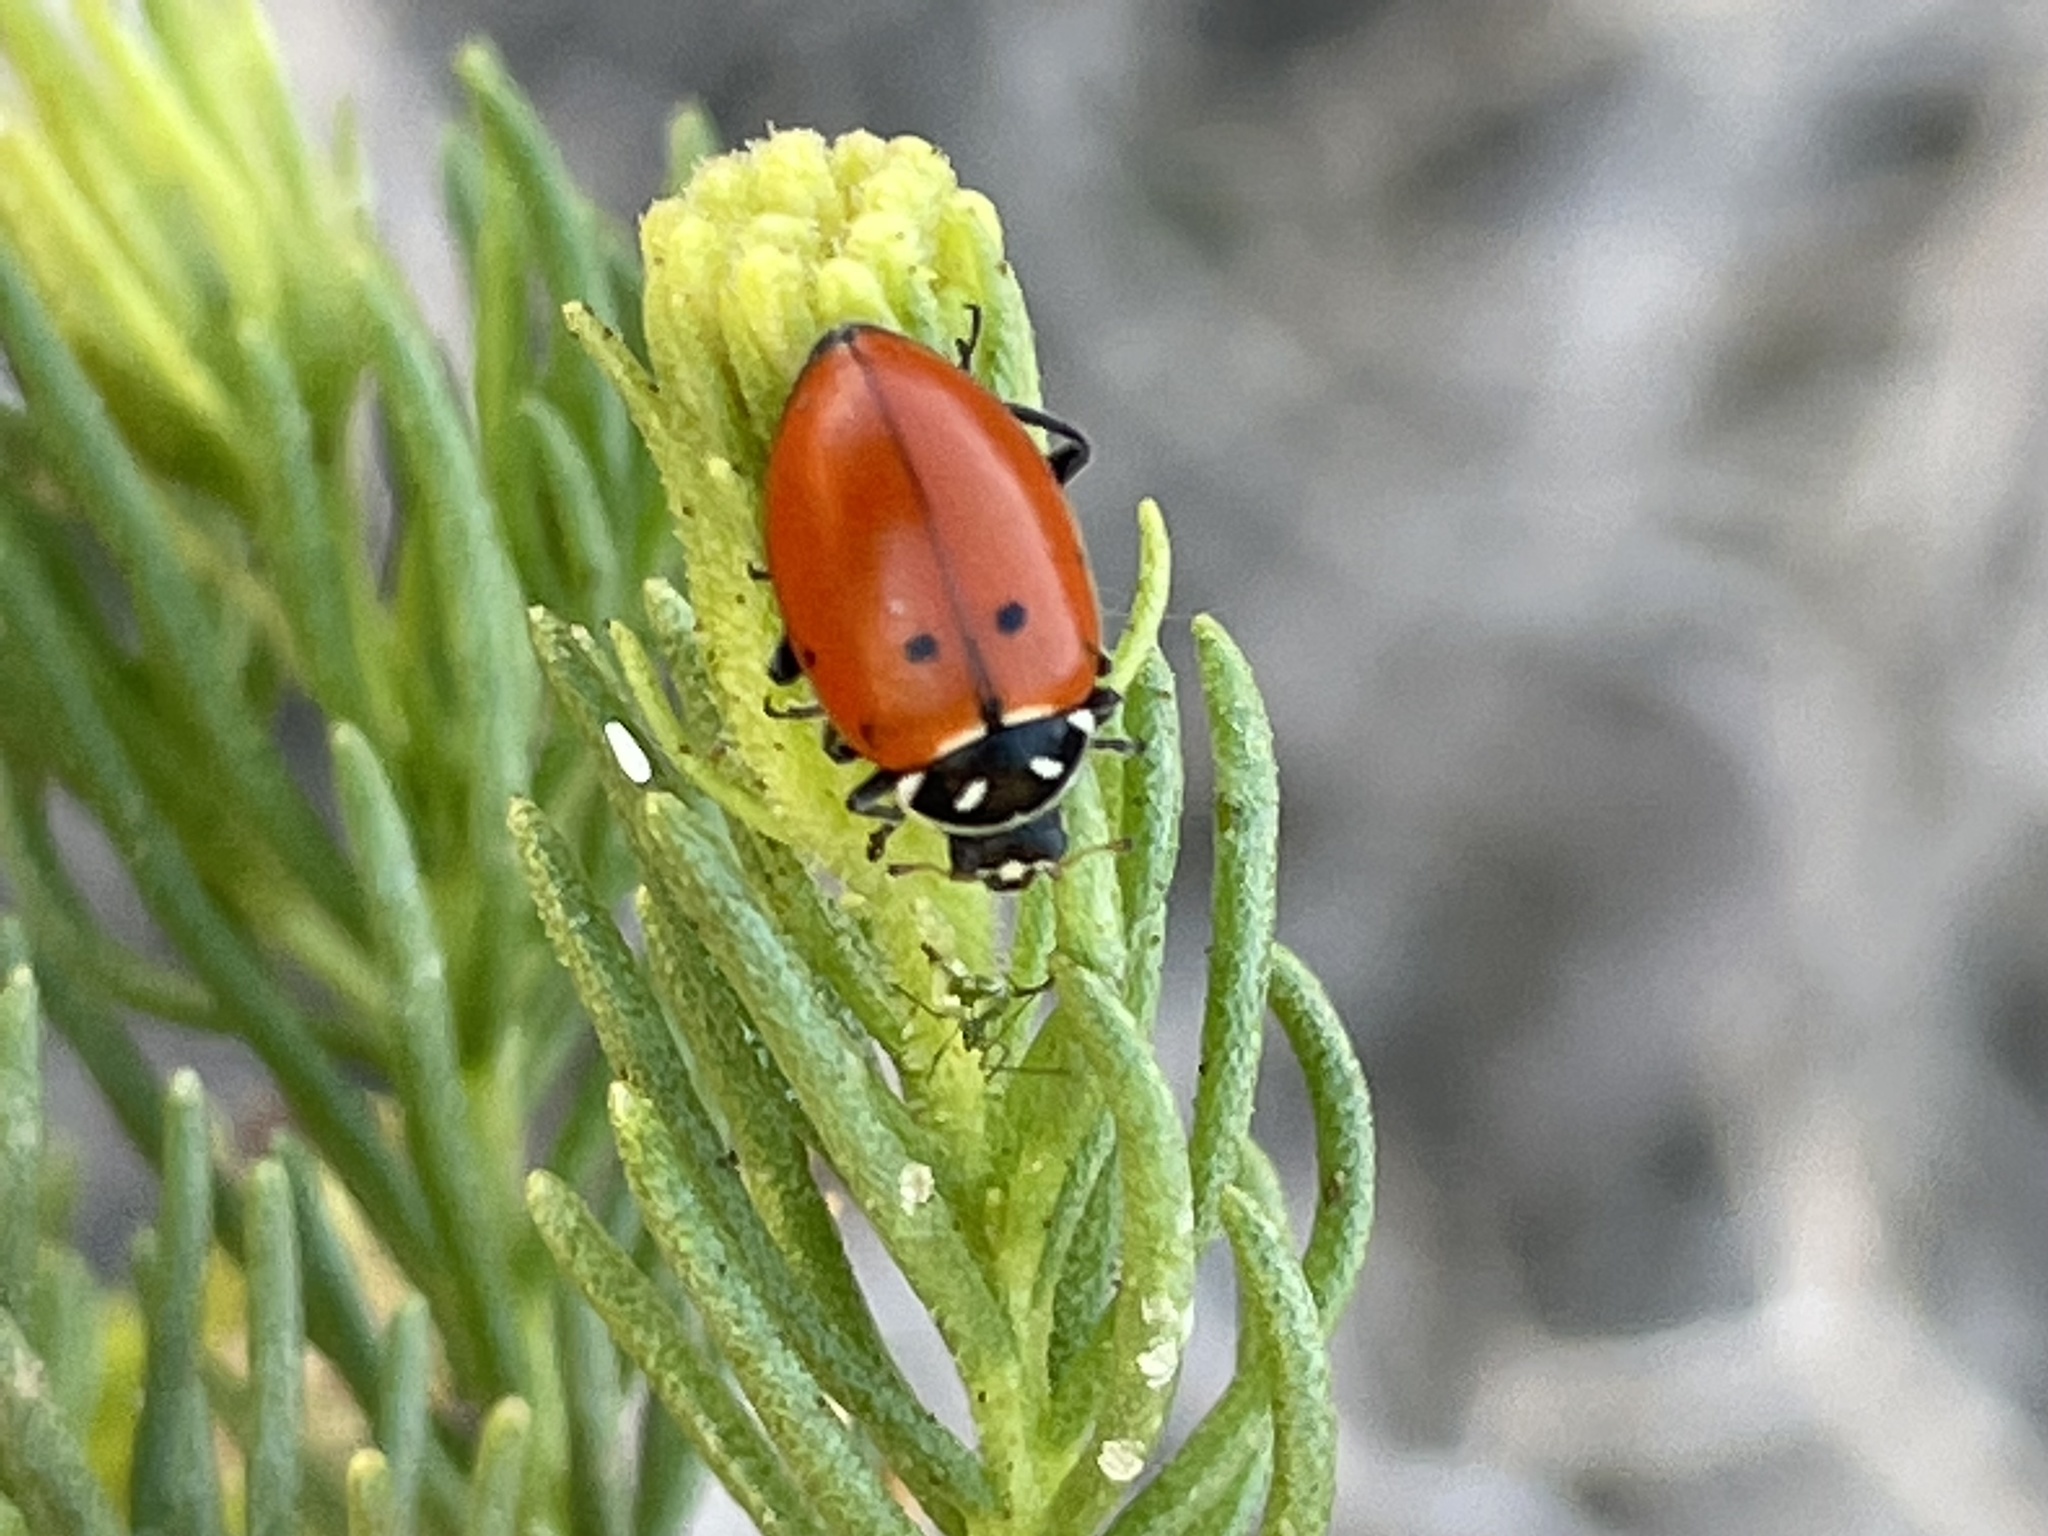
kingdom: Animalia
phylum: Arthropoda
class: Insecta
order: Coleoptera
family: Coccinellidae
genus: Hippodamia
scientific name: Hippodamia convergens
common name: Convergent lady beetle
